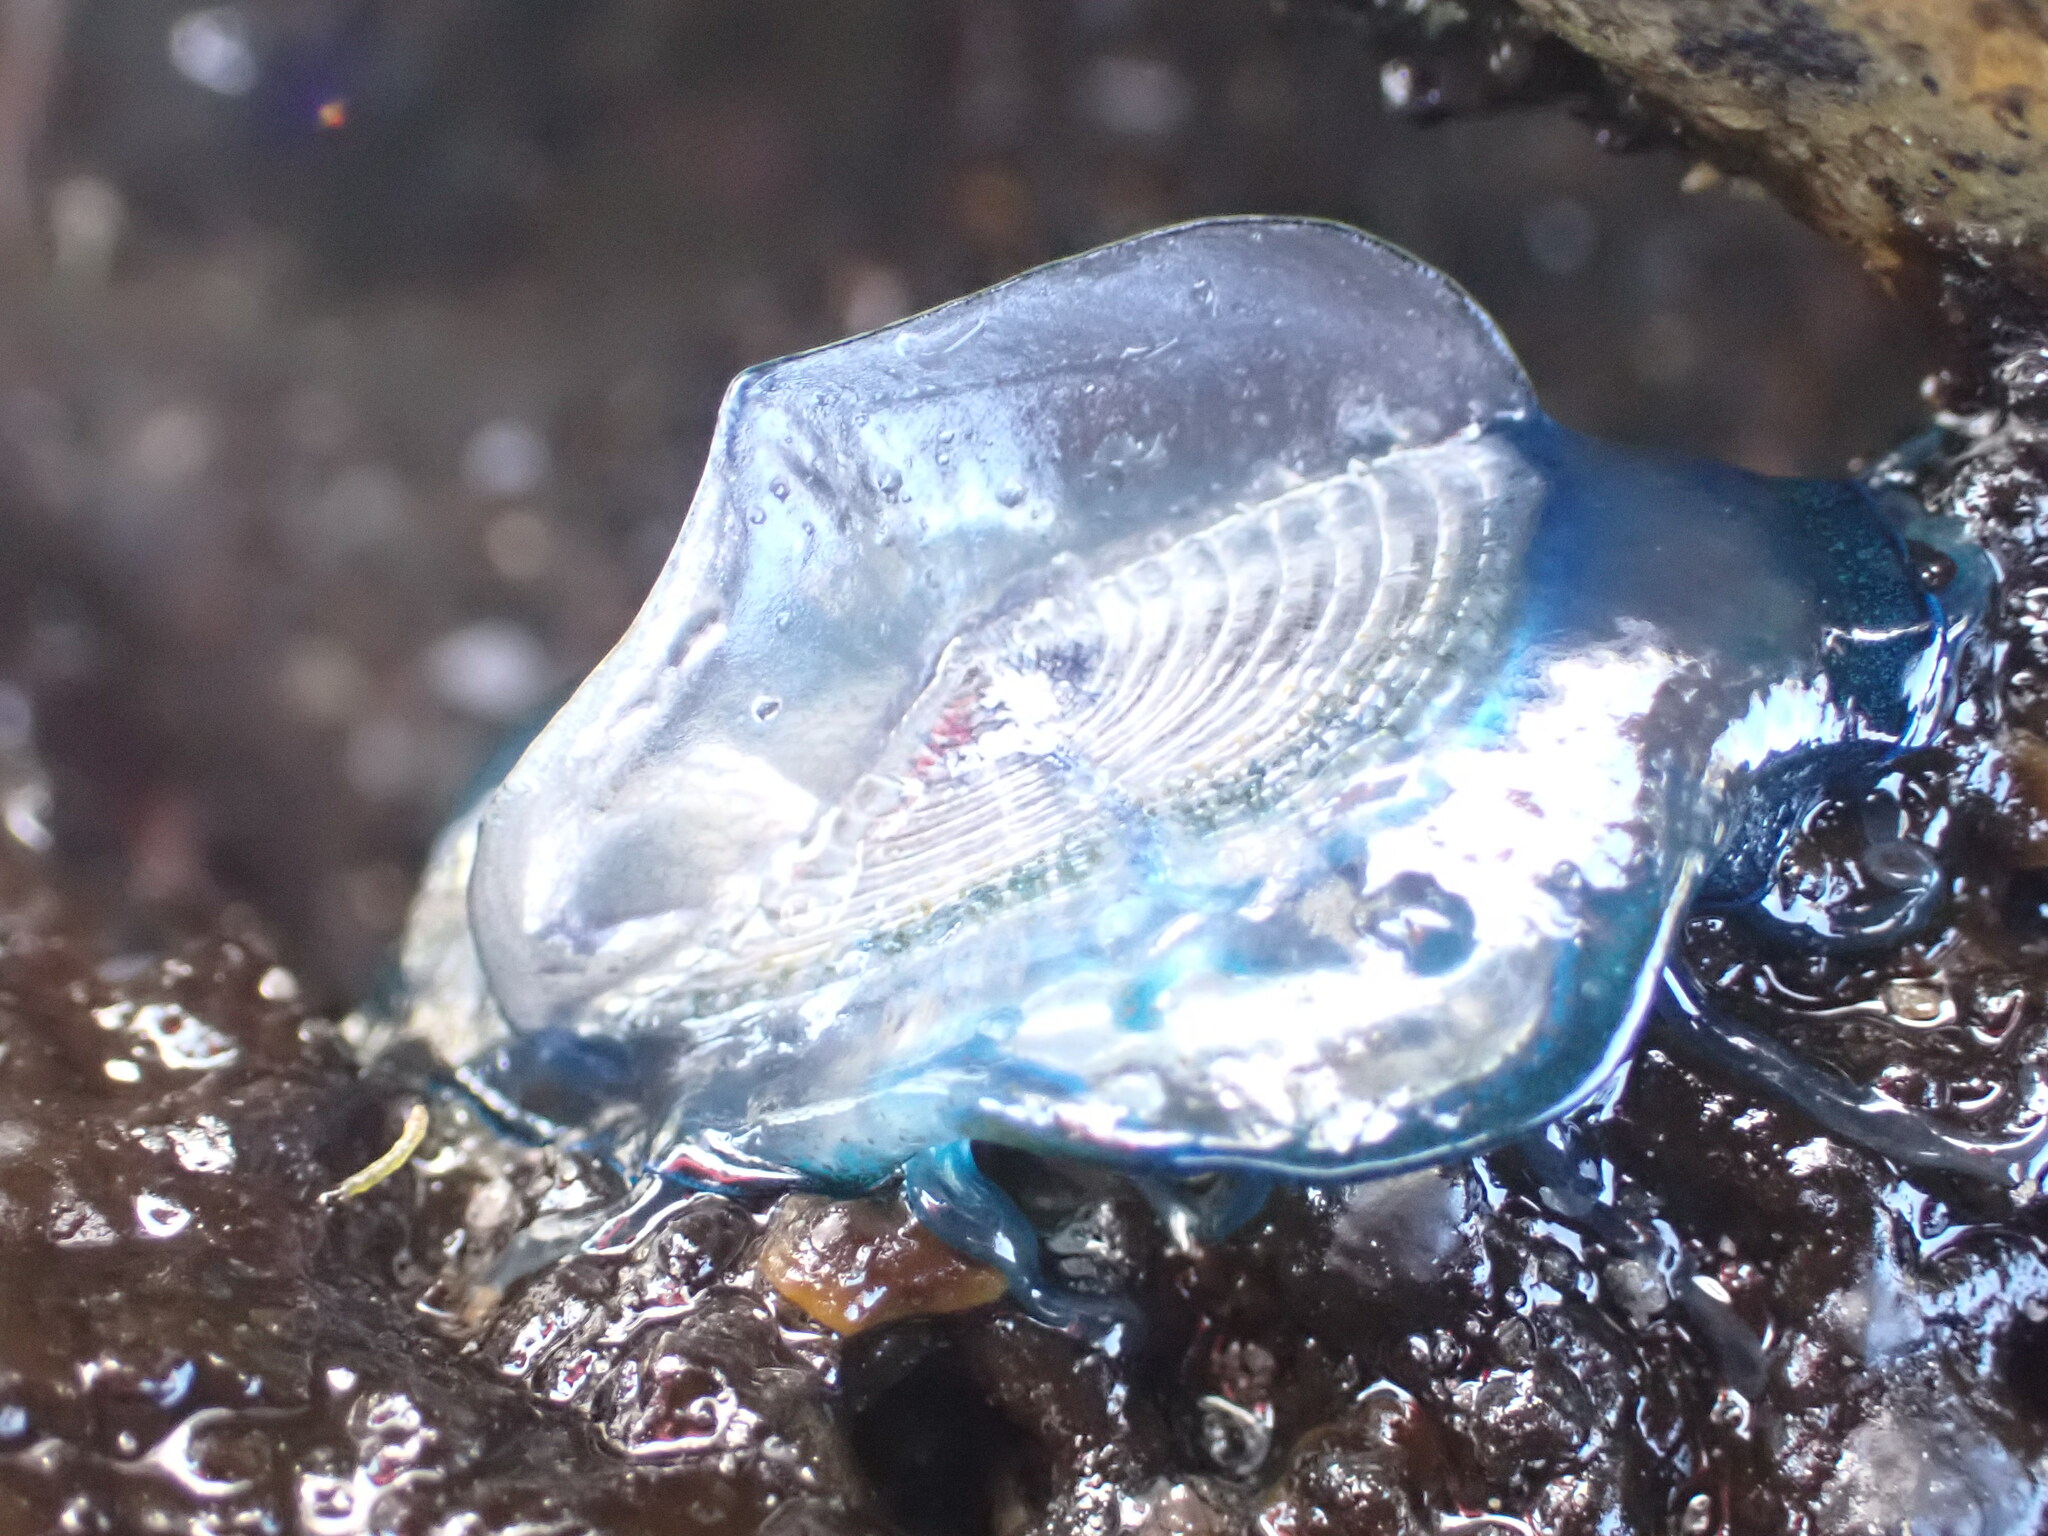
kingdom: Animalia
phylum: Cnidaria
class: Hydrozoa
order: Anthoathecata
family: Porpitidae
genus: Velella
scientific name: Velella velella
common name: By-the-wind-sailor
